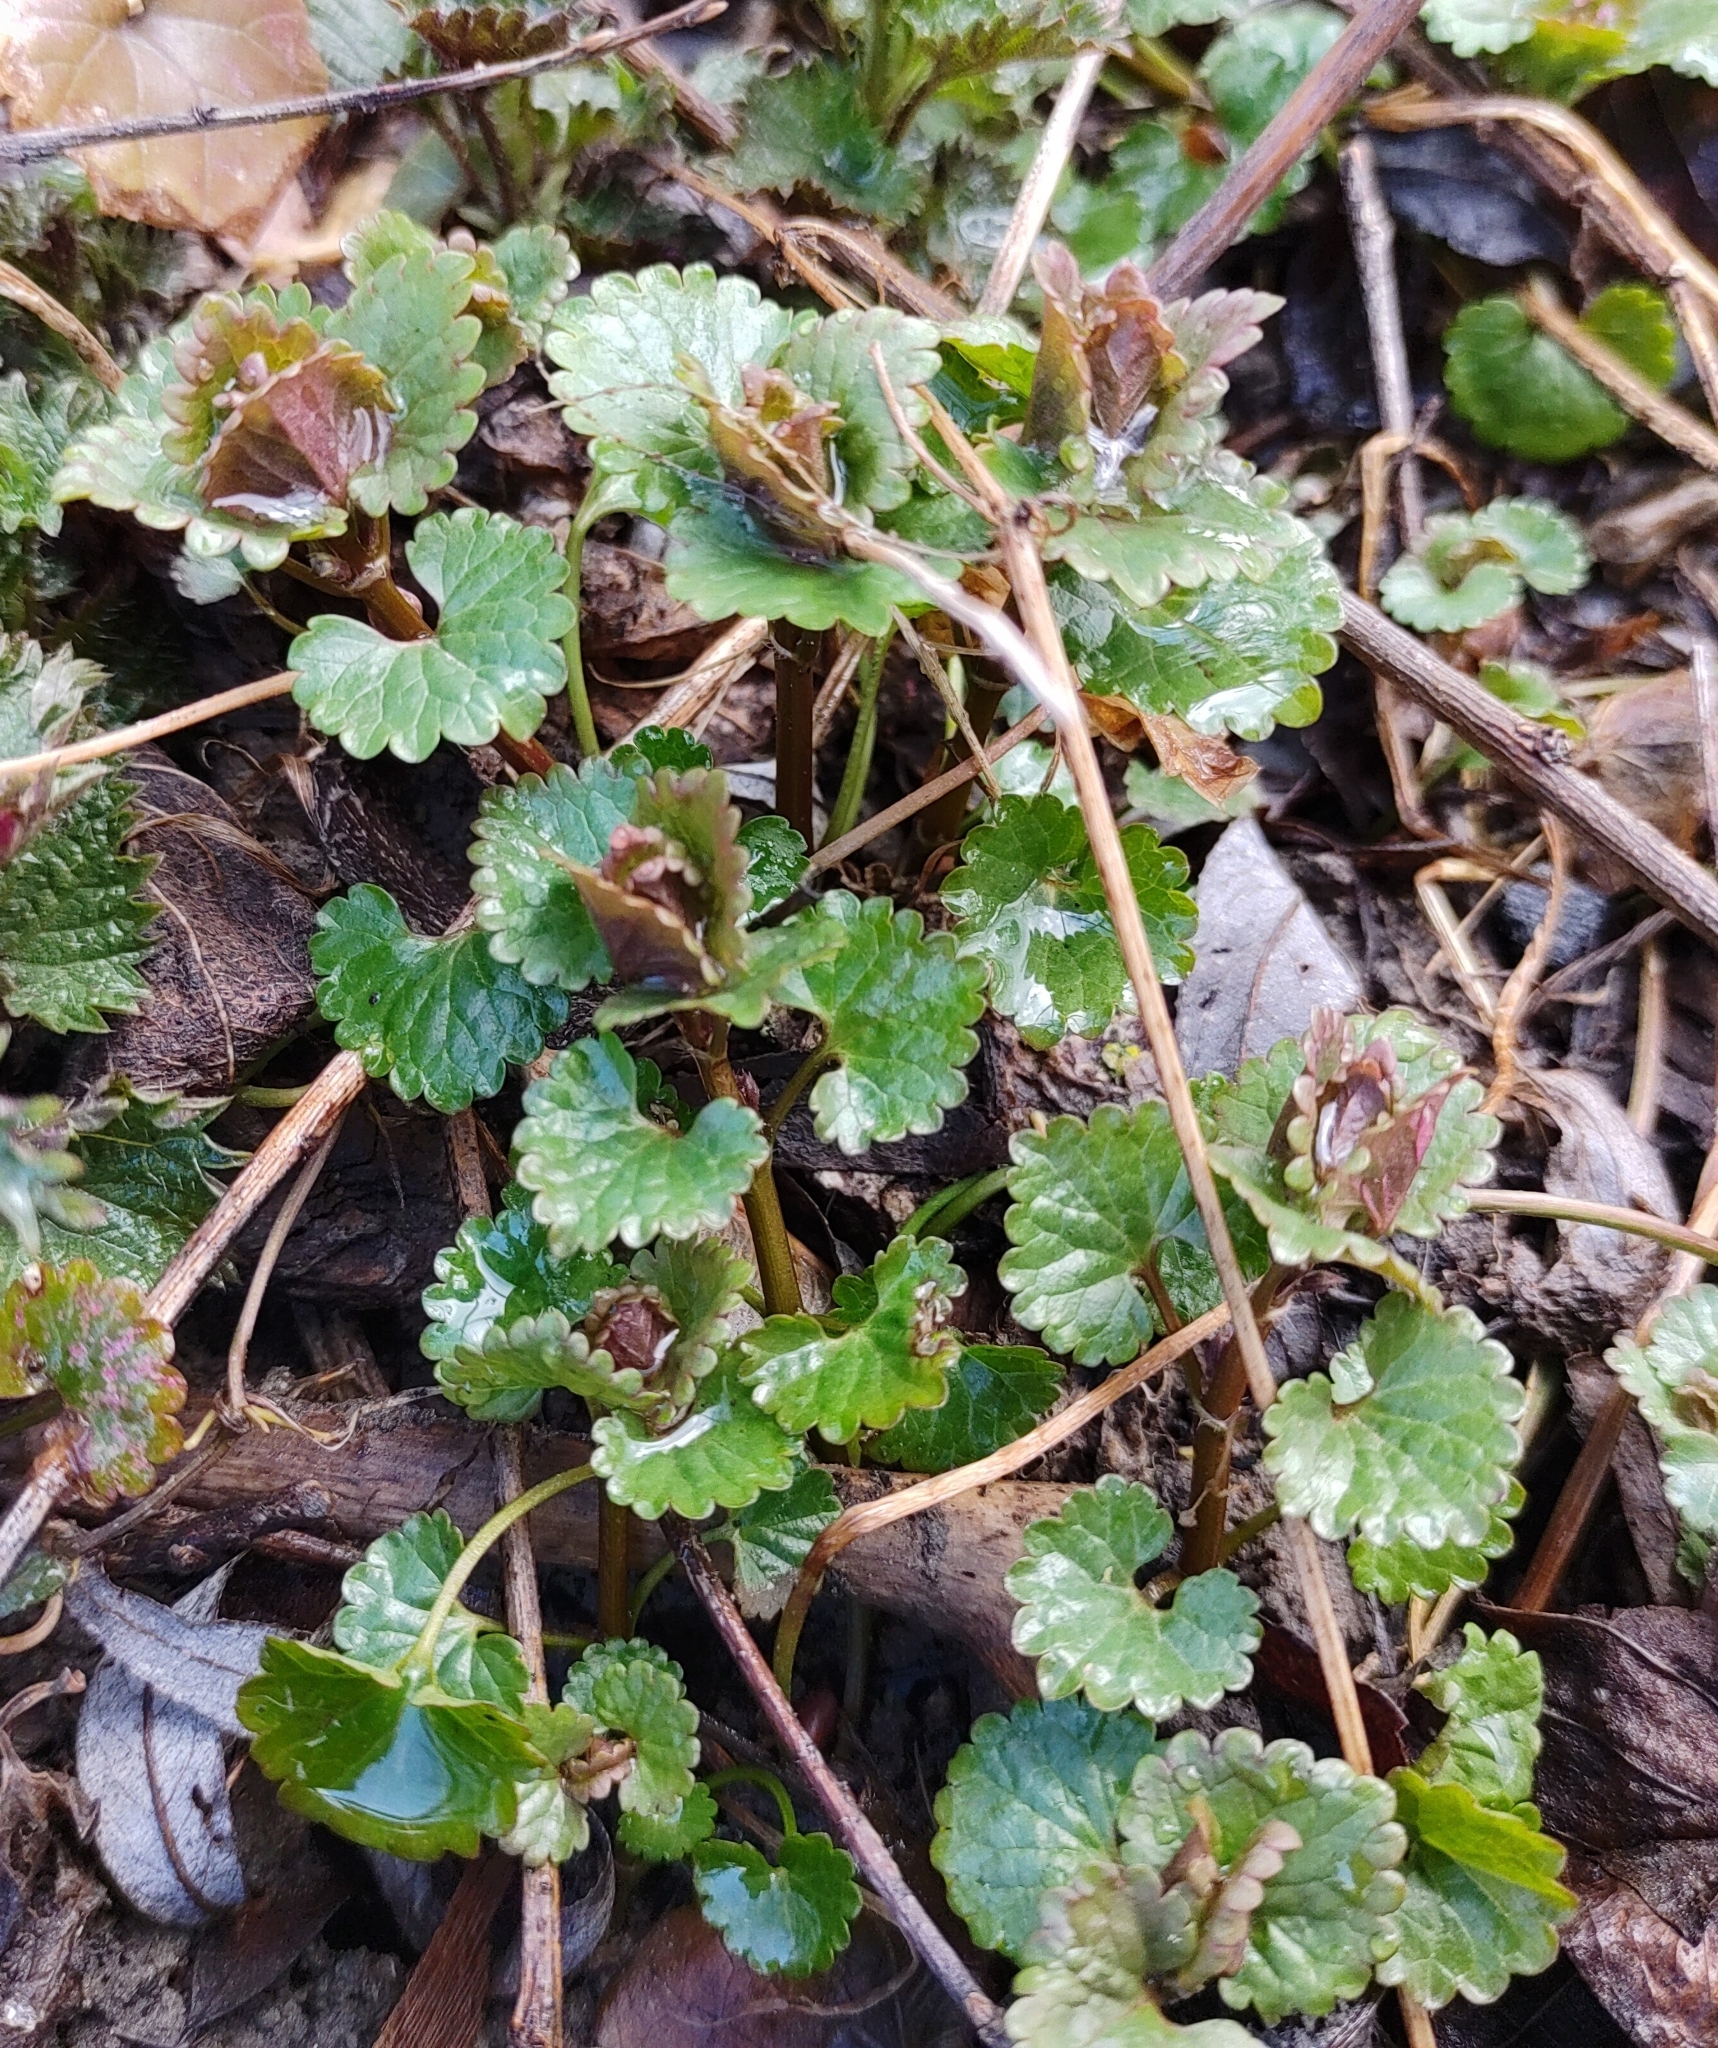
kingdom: Plantae
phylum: Tracheophyta
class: Magnoliopsida
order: Lamiales
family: Lamiaceae
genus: Glechoma
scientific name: Glechoma hederacea
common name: Ground ivy
